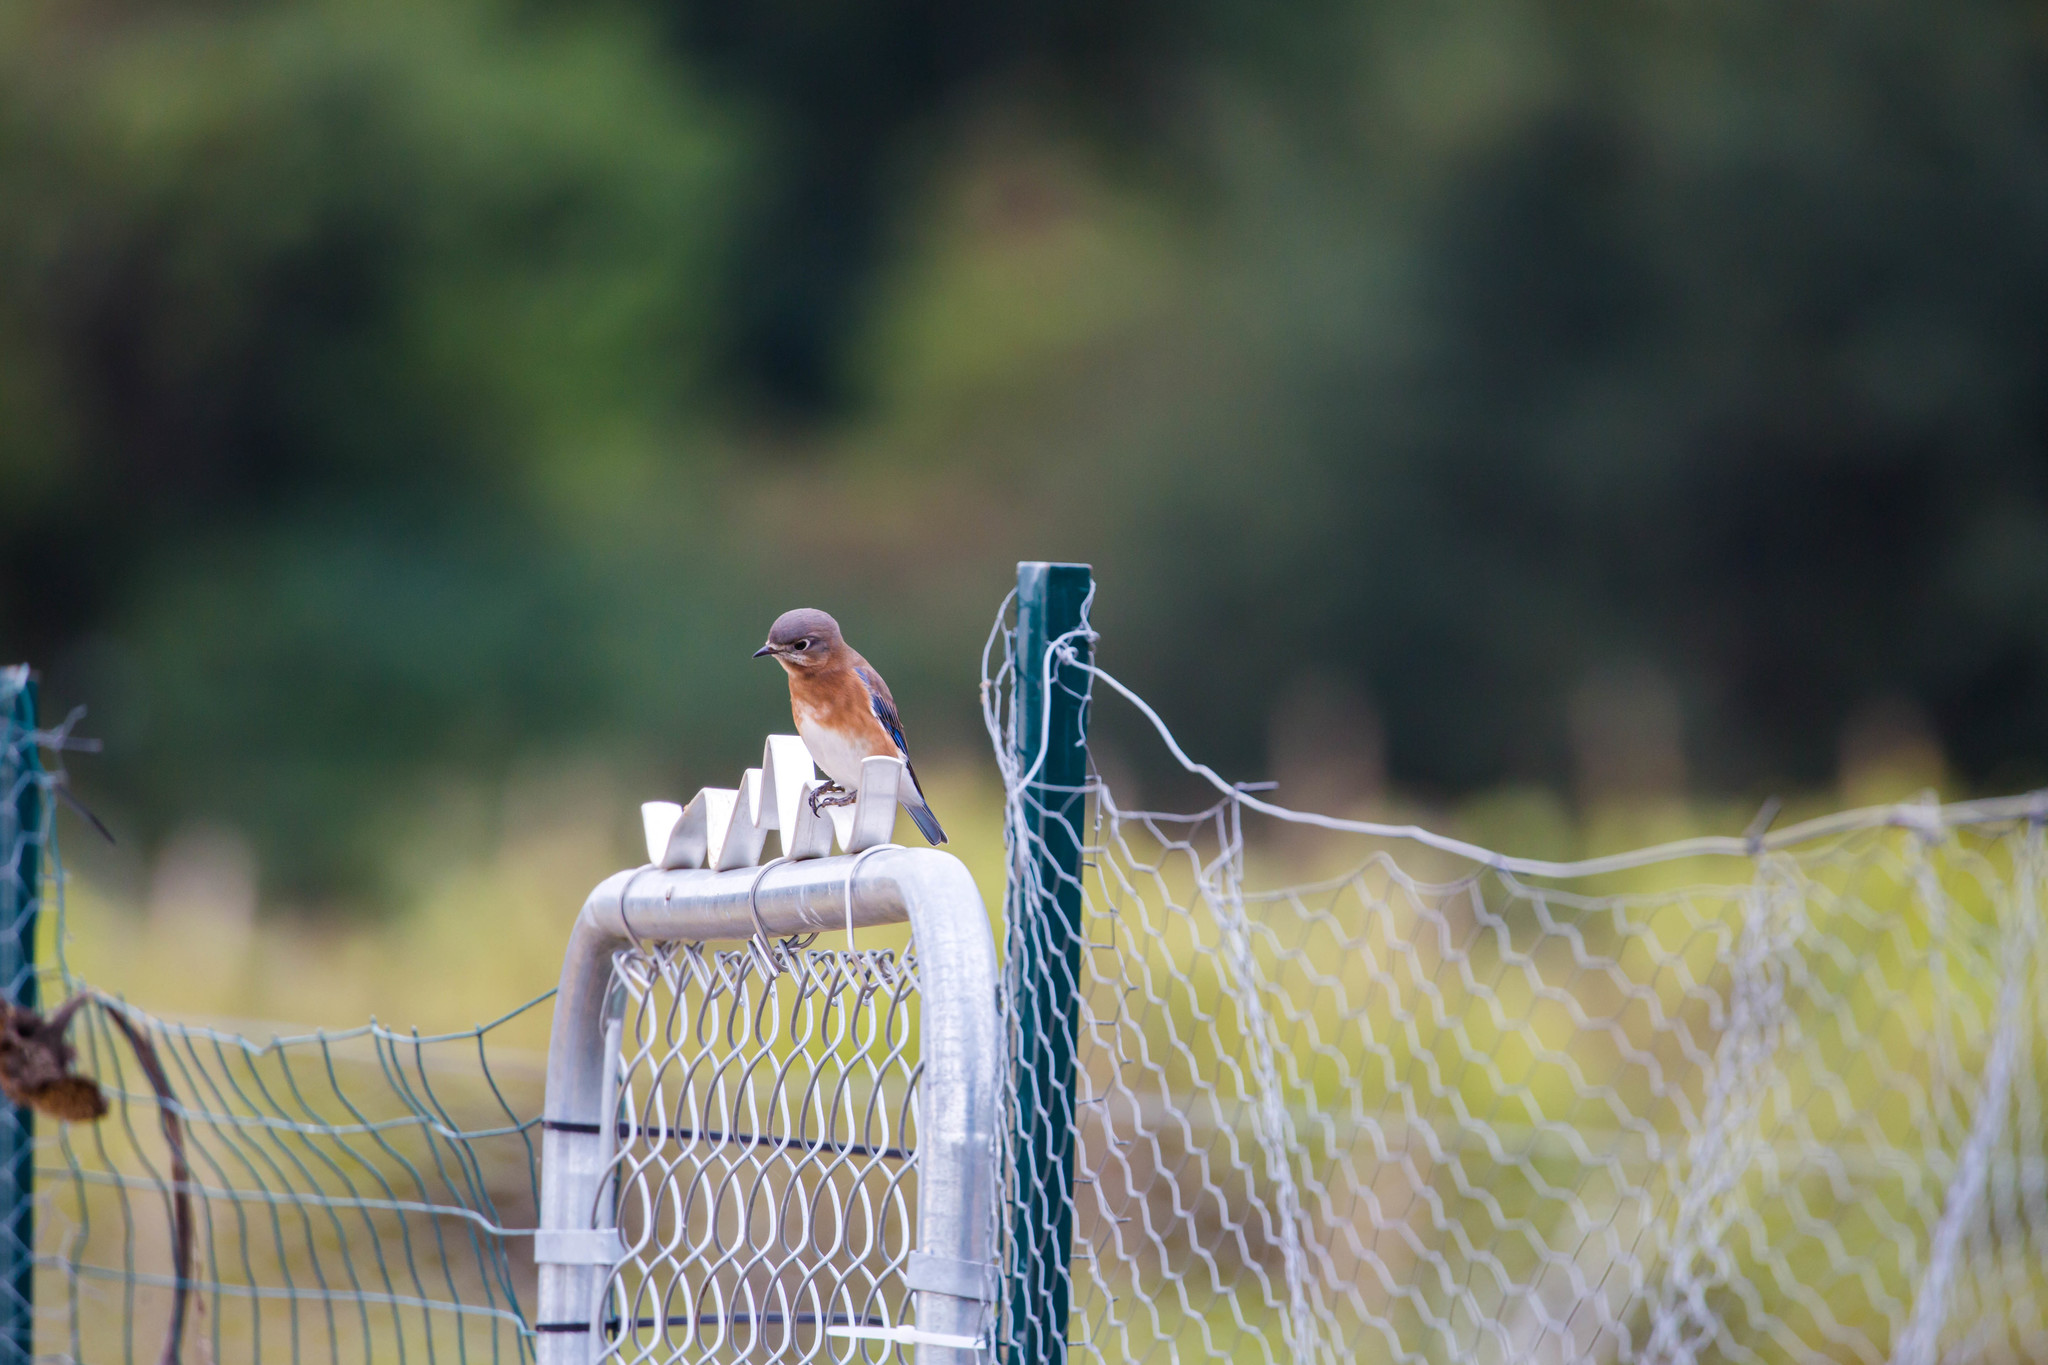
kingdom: Animalia
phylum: Chordata
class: Aves
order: Passeriformes
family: Turdidae
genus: Sialia
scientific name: Sialia sialis
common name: Eastern bluebird
